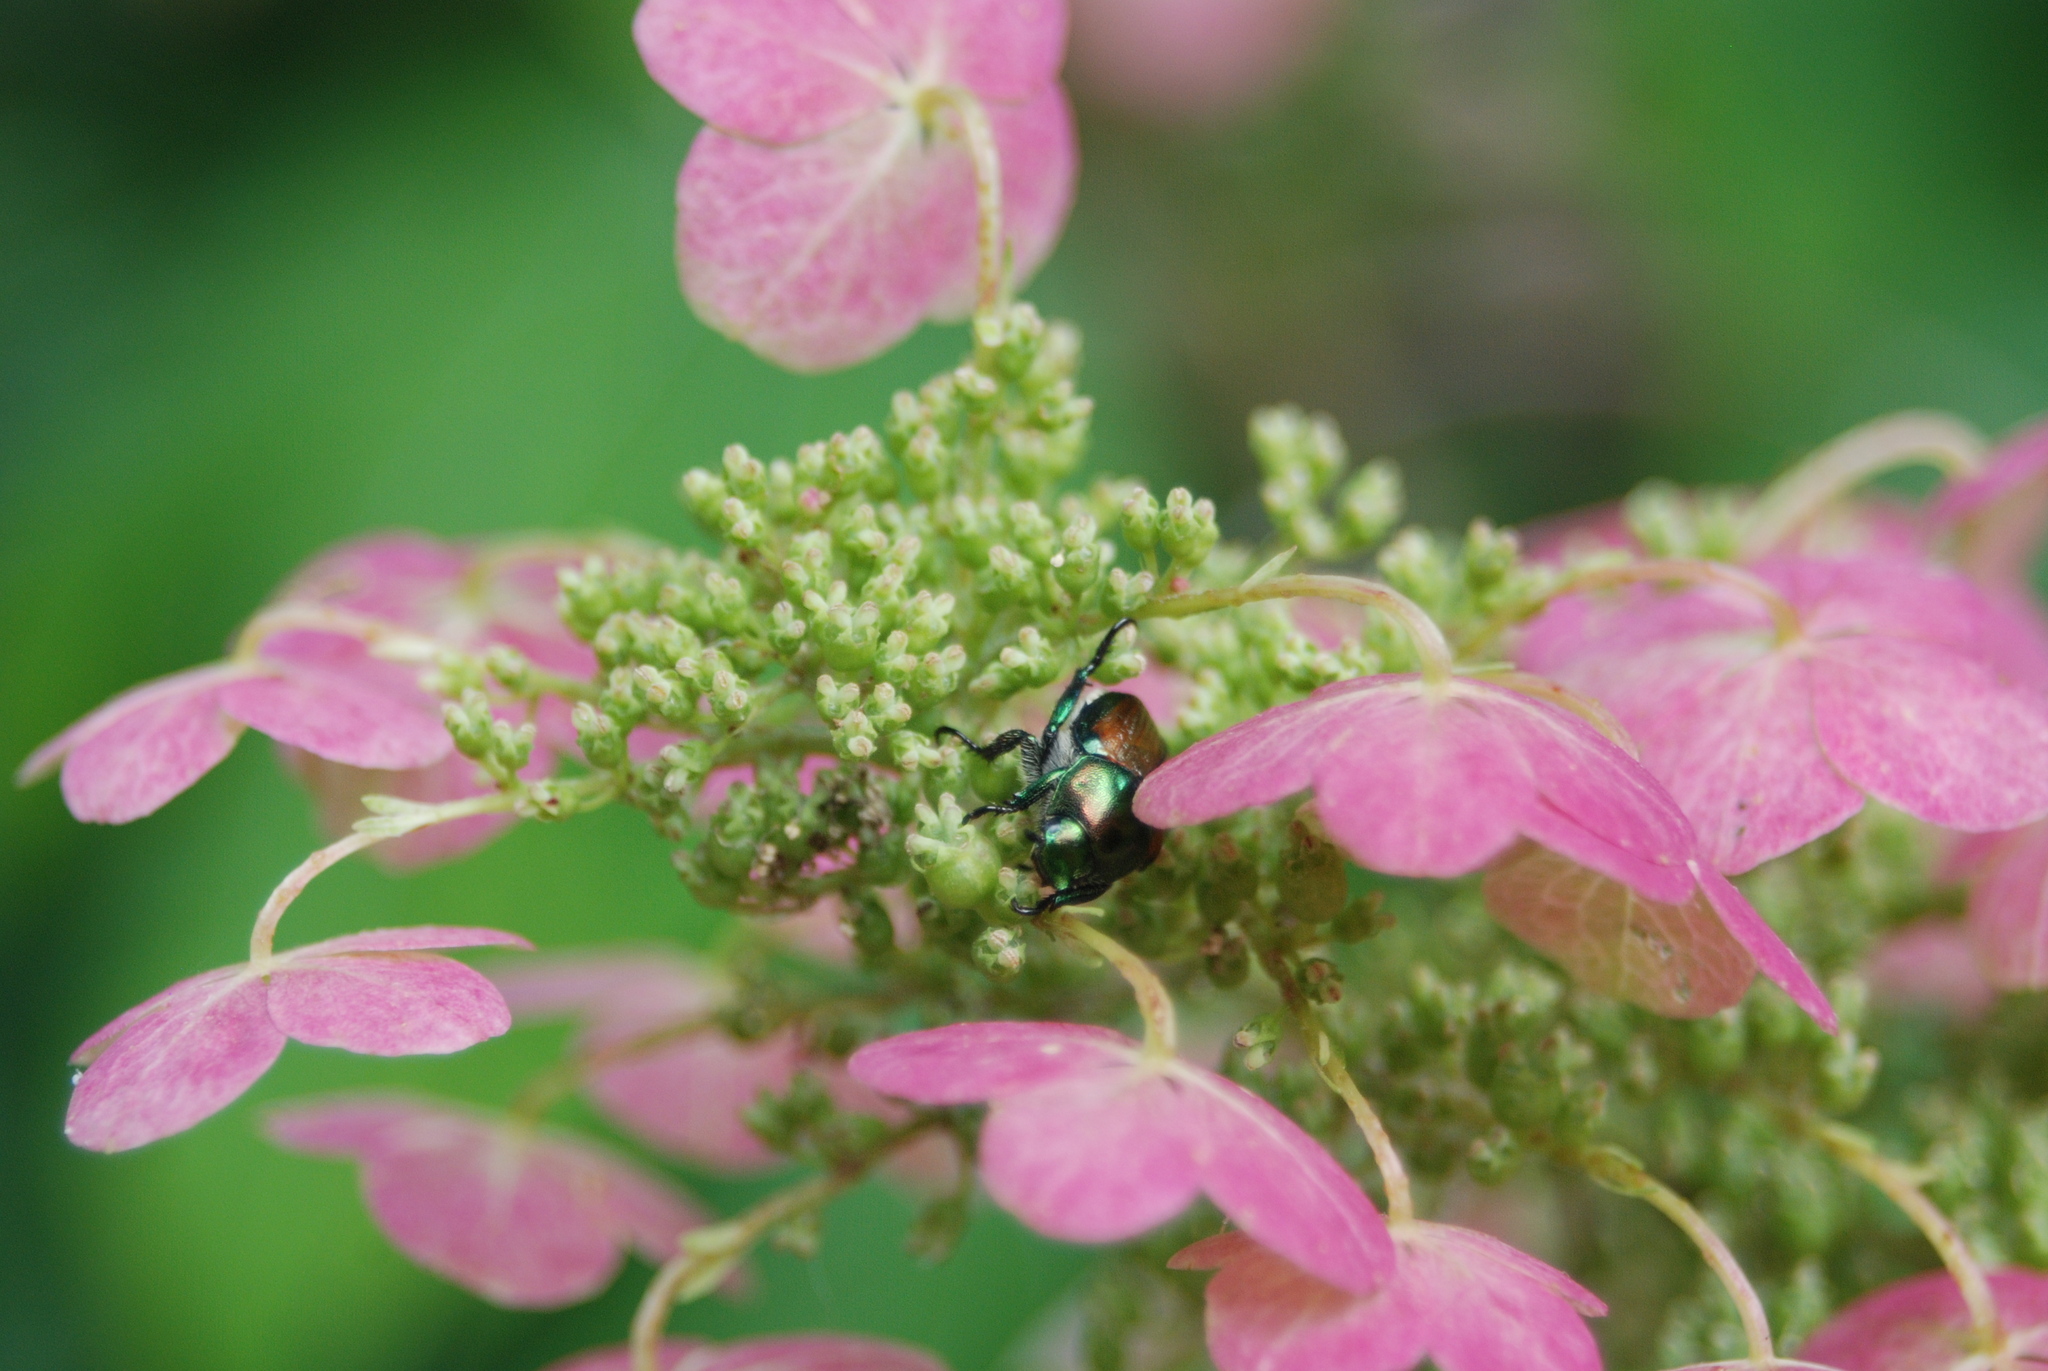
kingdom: Animalia
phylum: Arthropoda
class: Insecta
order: Coleoptera
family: Scarabaeidae
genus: Popillia
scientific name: Popillia japonica
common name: Japanese beetle
